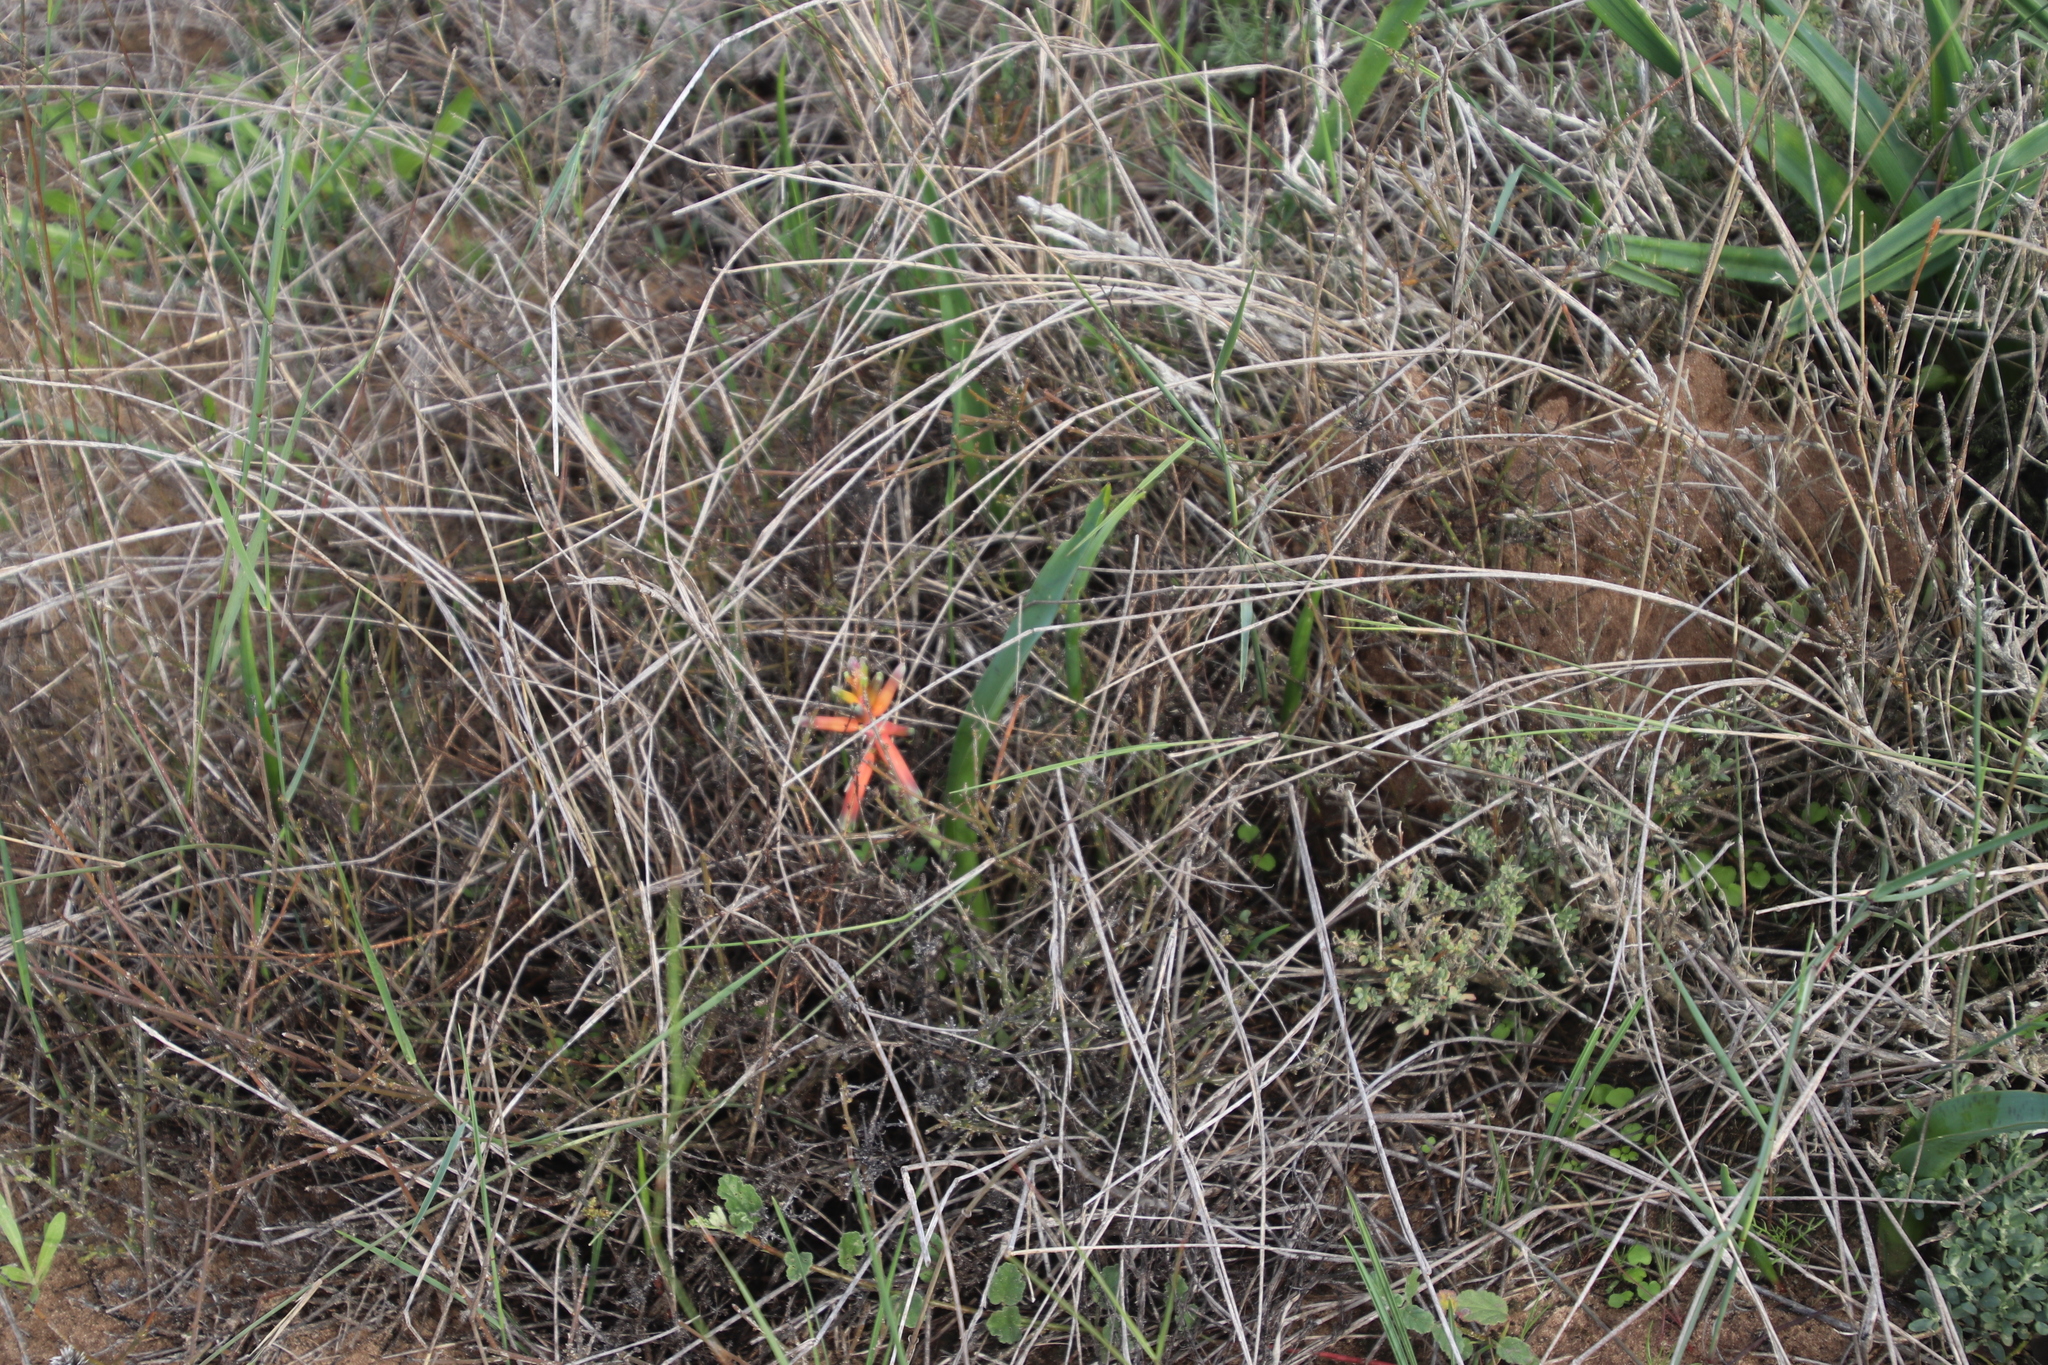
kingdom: Plantae
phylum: Tracheophyta
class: Liliopsida
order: Asparagales
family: Asparagaceae
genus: Lachenalia
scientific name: Lachenalia bulbifera
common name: Red lachenalia
